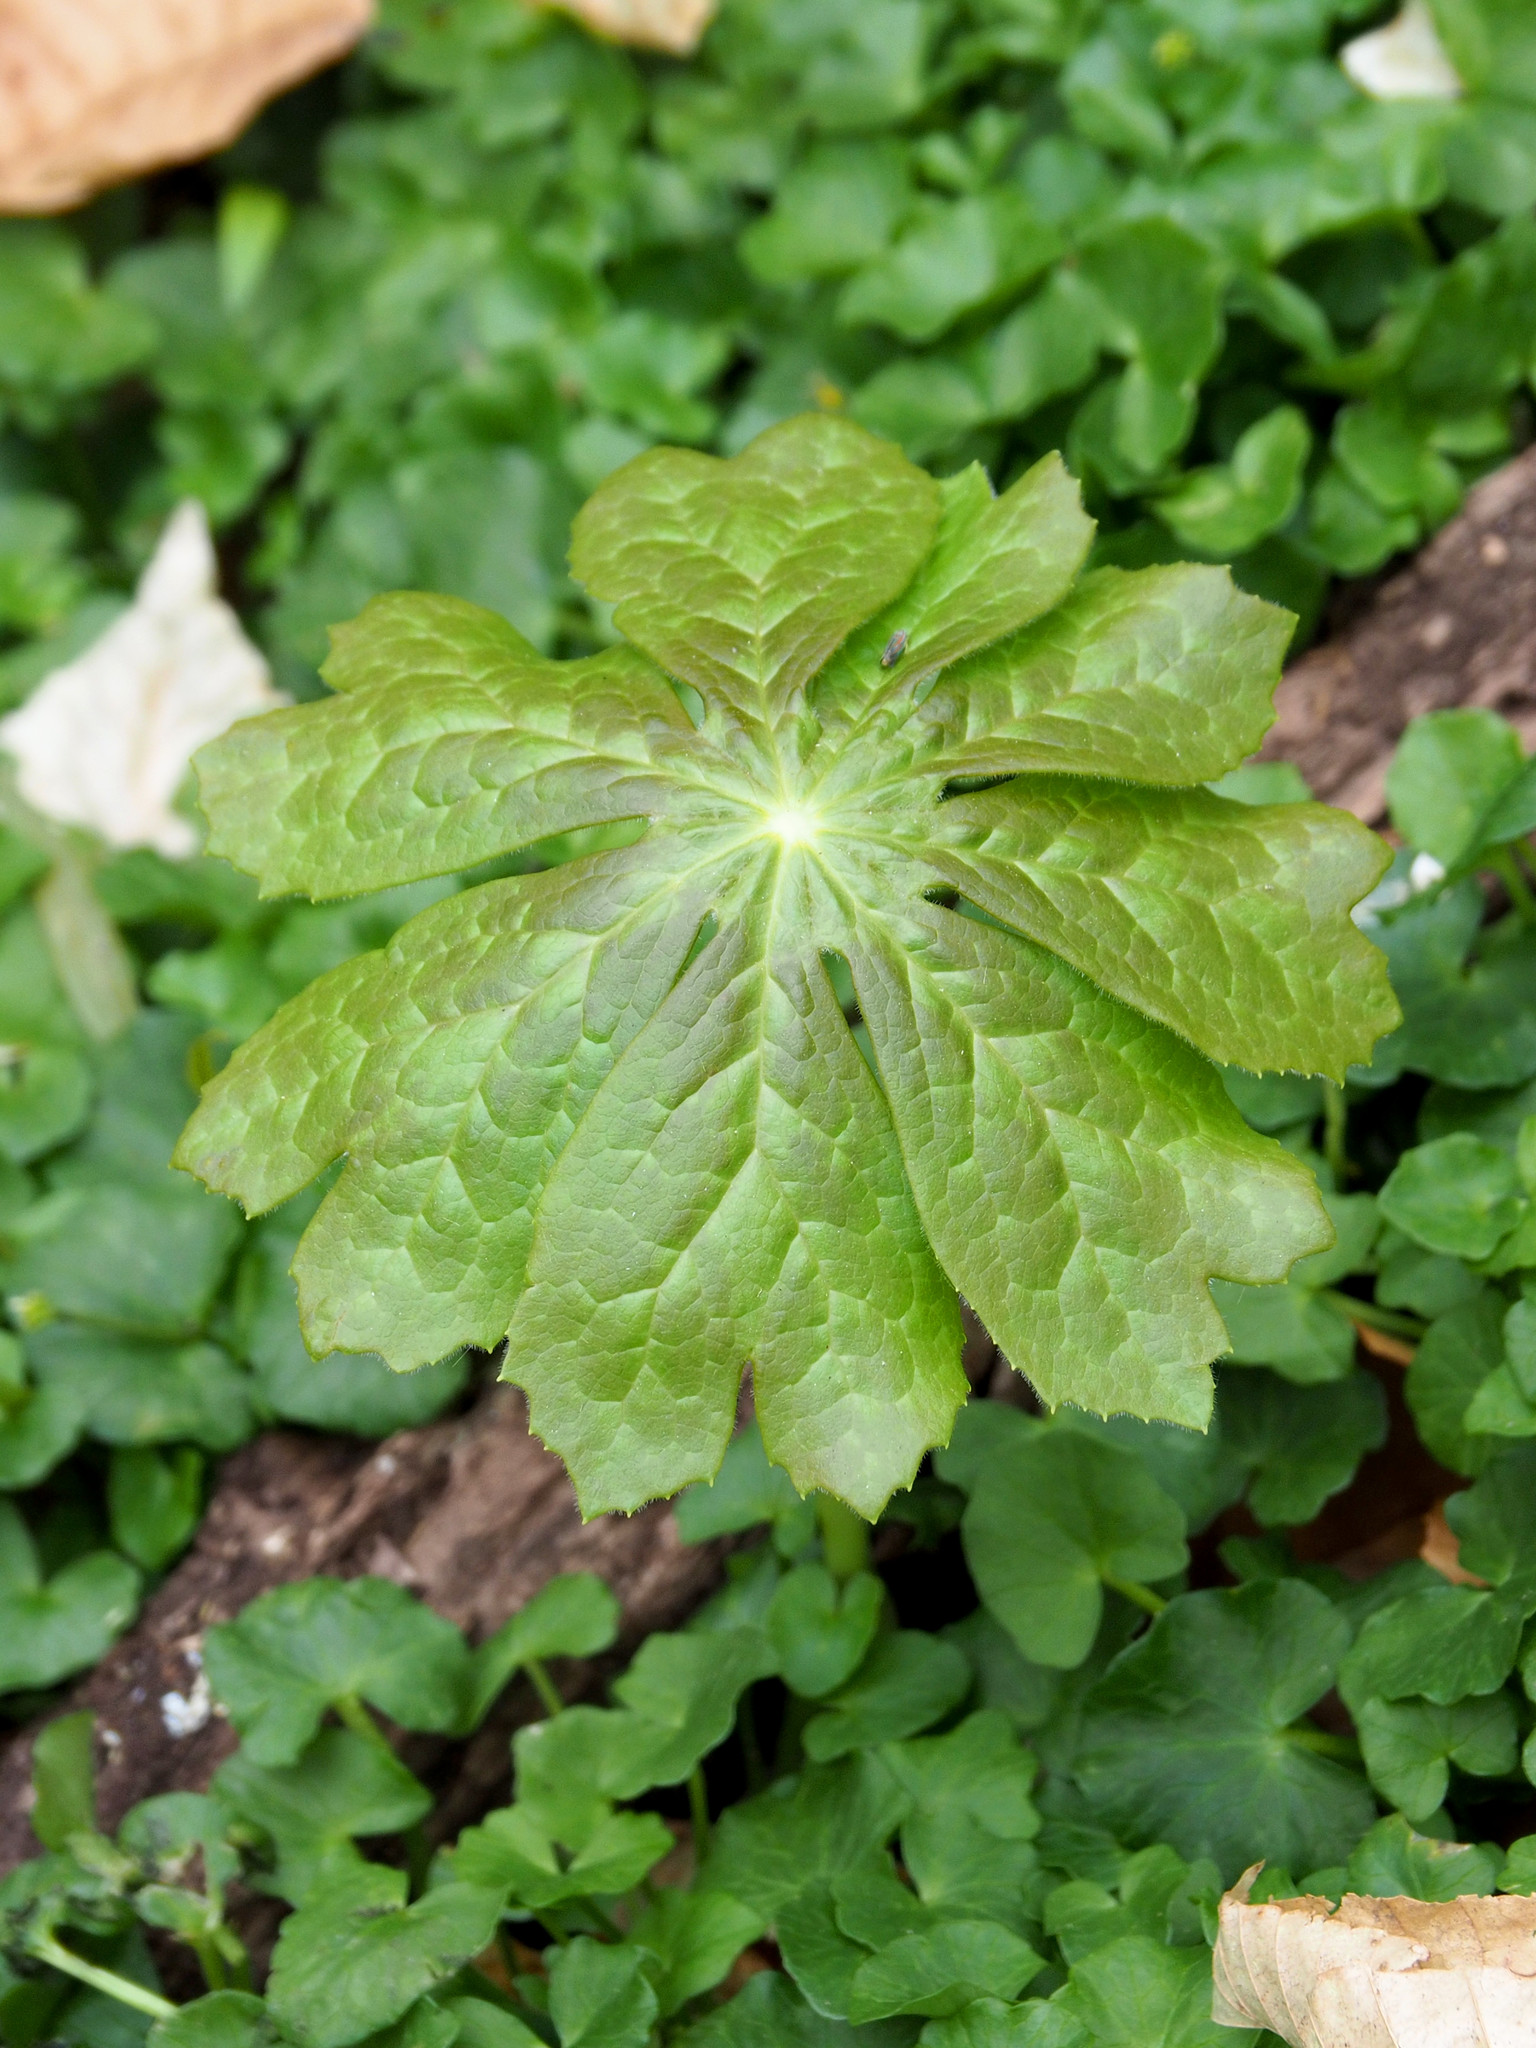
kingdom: Plantae
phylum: Tracheophyta
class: Magnoliopsida
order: Ranunculales
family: Berberidaceae
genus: Podophyllum
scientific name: Podophyllum peltatum
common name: Wild mandrake
